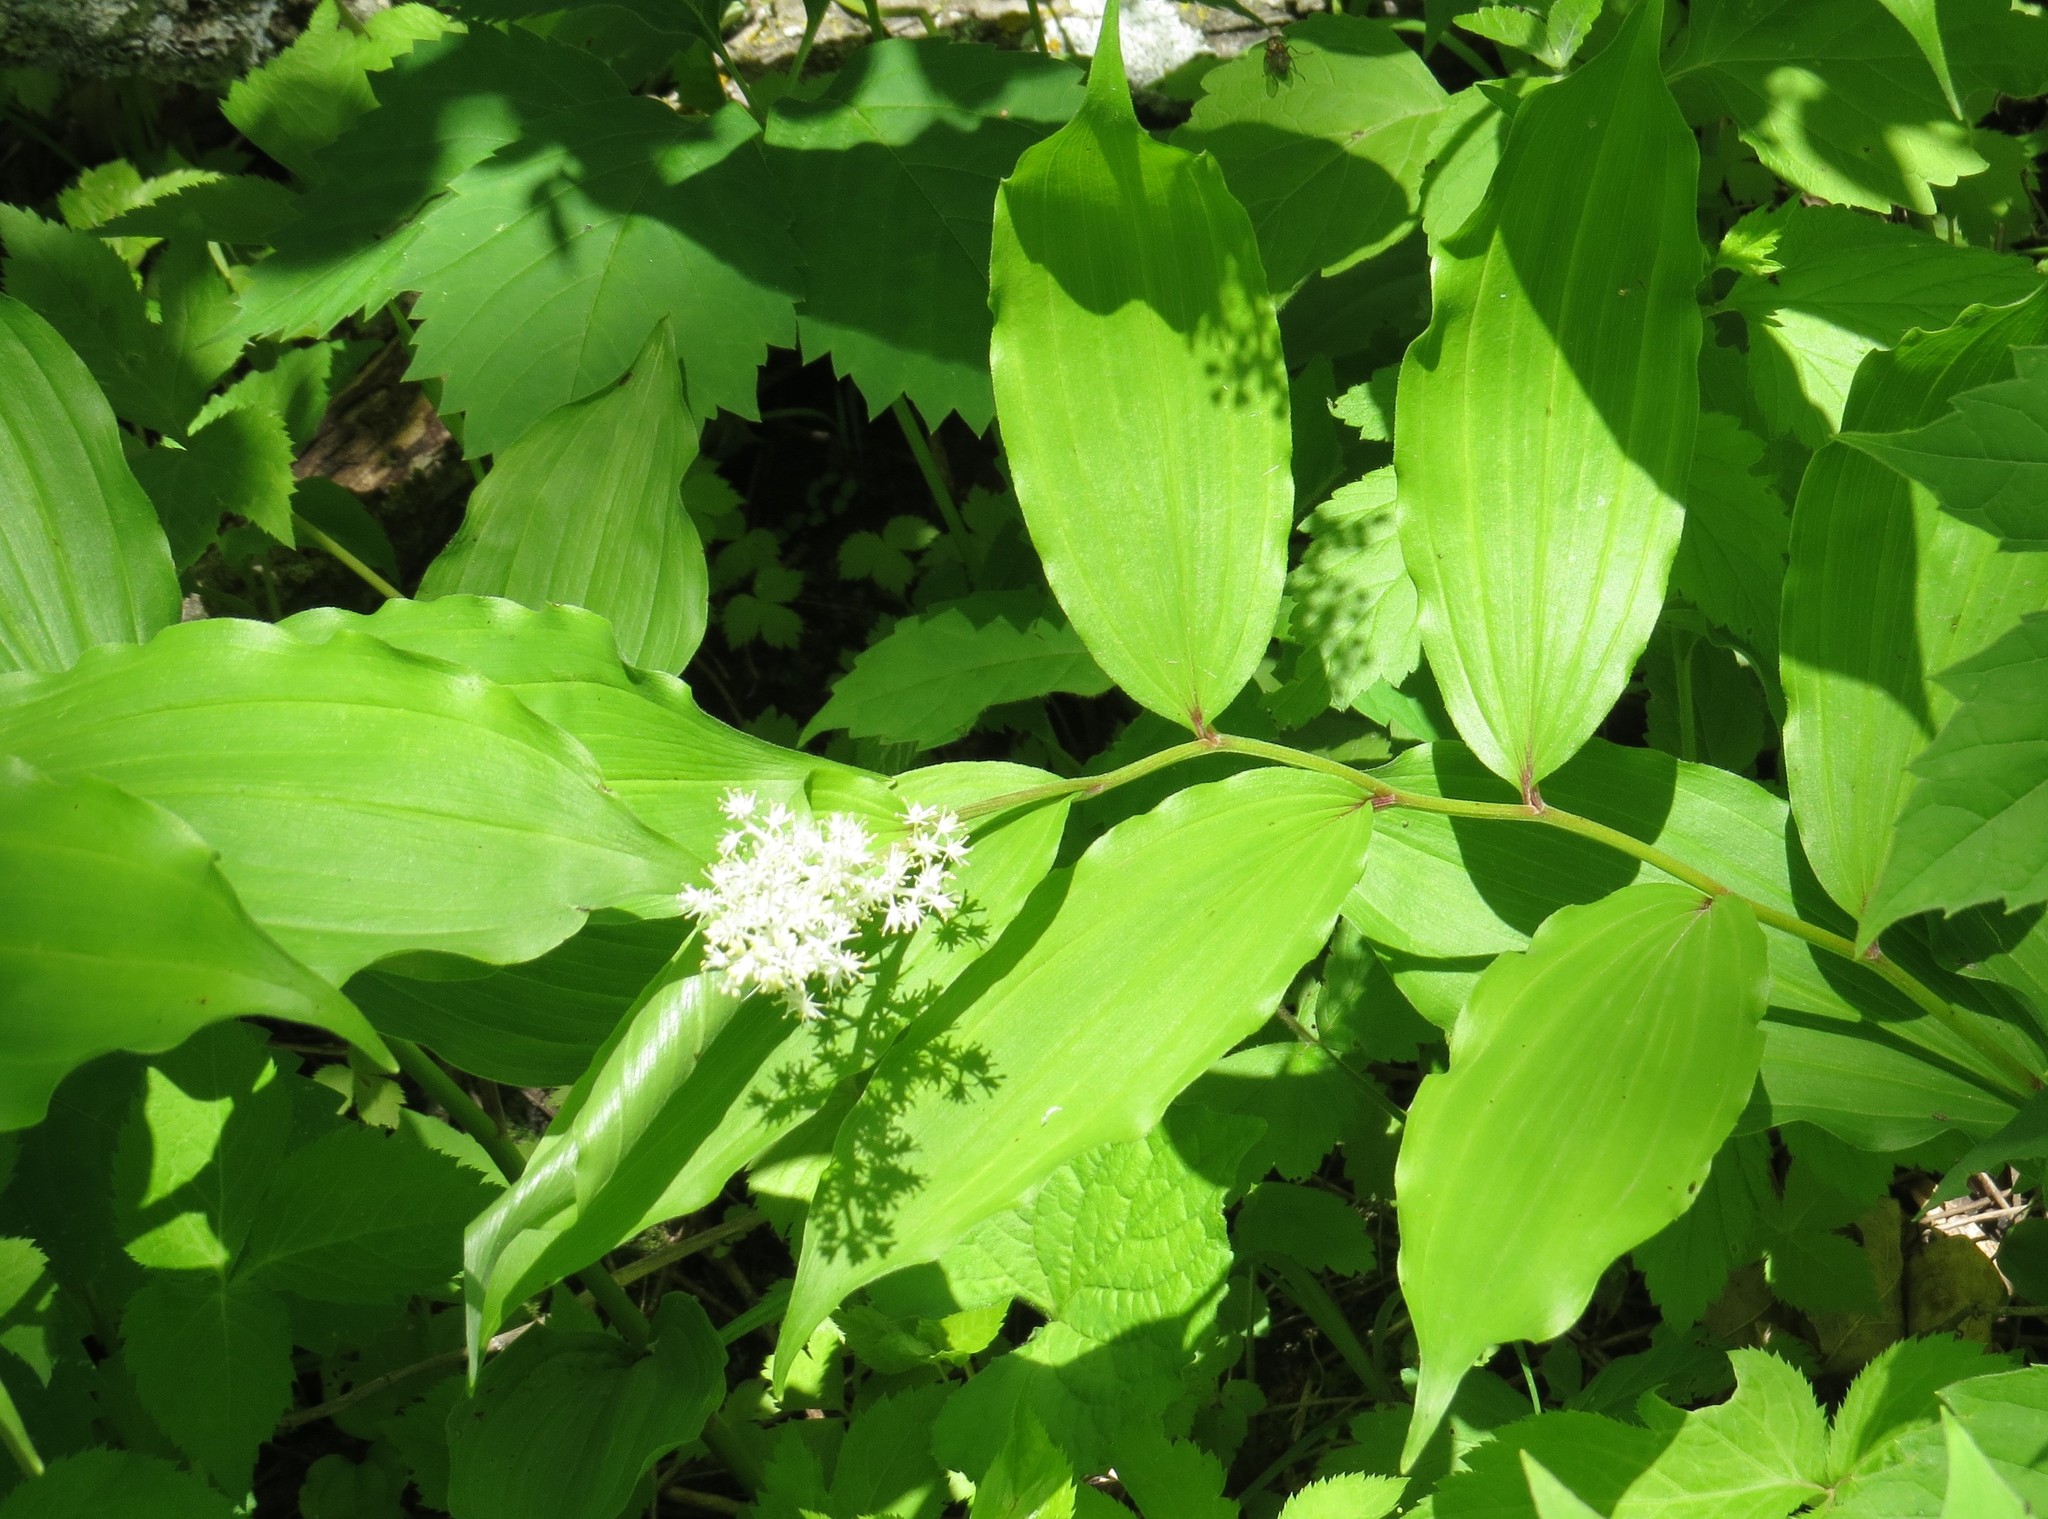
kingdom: Plantae
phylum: Tracheophyta
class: Liliopsida
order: Asparagales
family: Asparagaceae
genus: Maianthemum
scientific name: Maianthemum racemosum
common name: False spikenard
